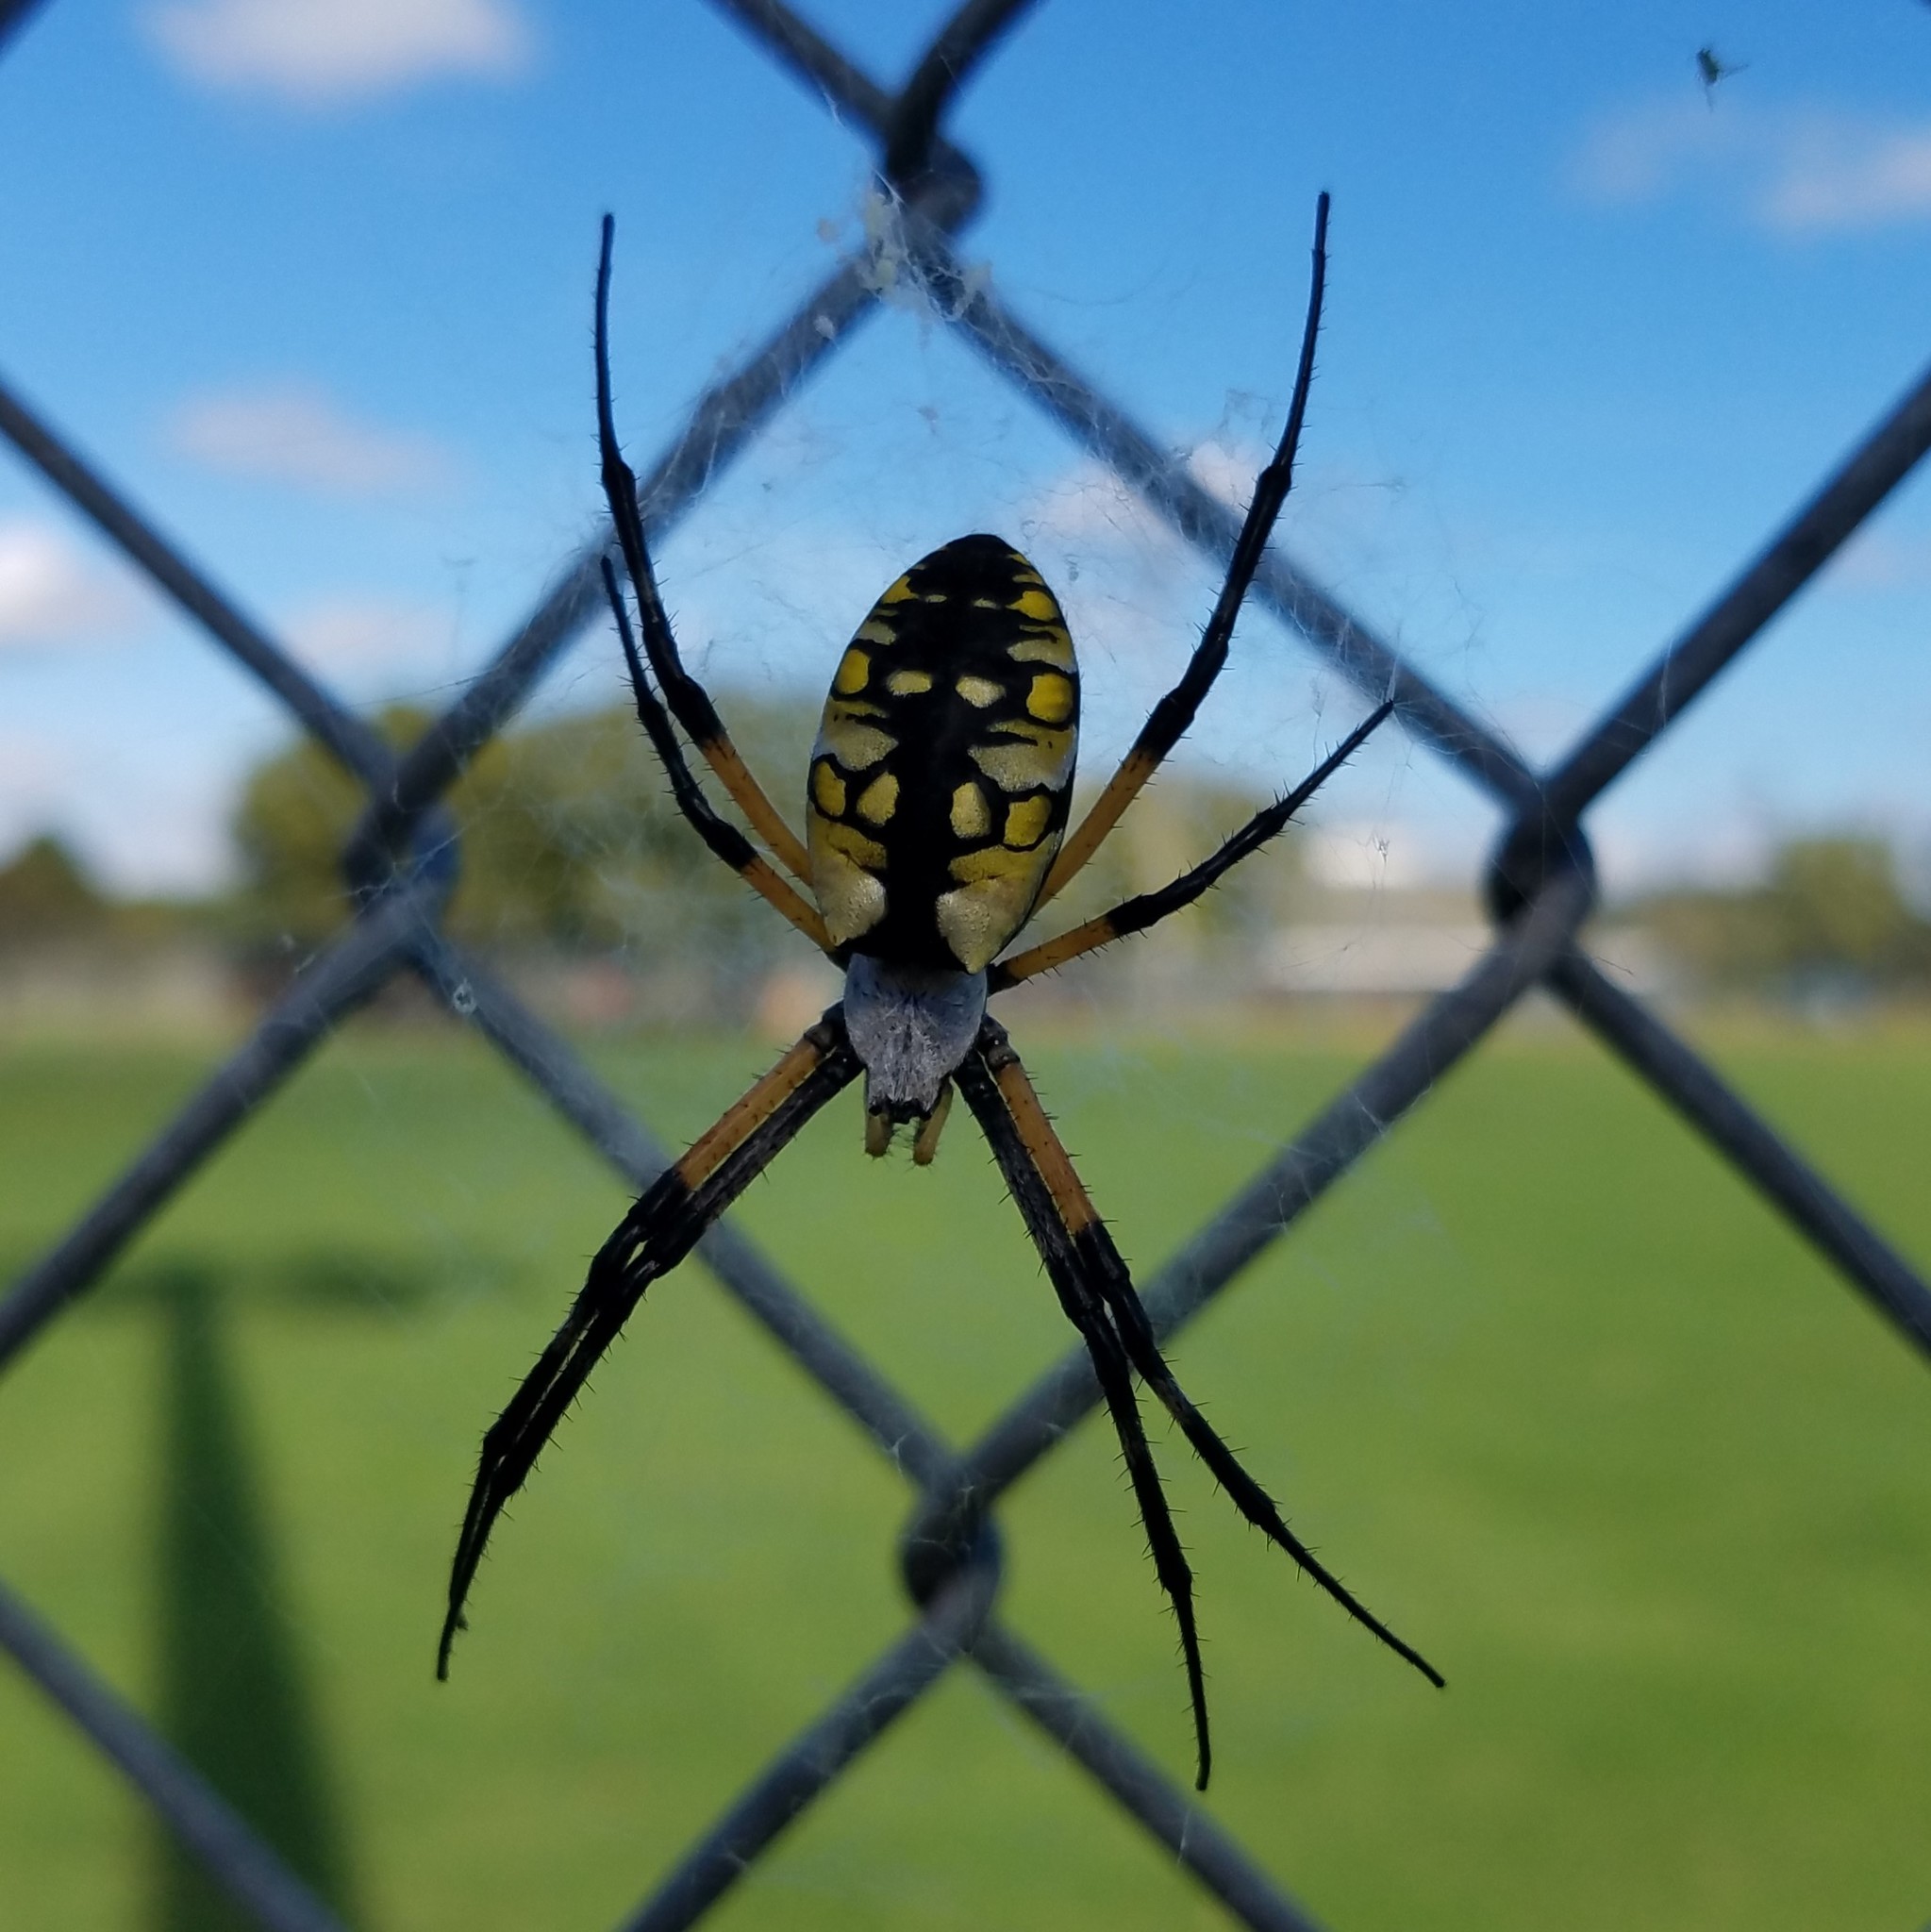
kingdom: Animalia
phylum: Arthropoda
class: Arachnida
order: Araneae
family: Araneidae
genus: Argiope
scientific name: Argiope aurantia
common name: Orb weavers
